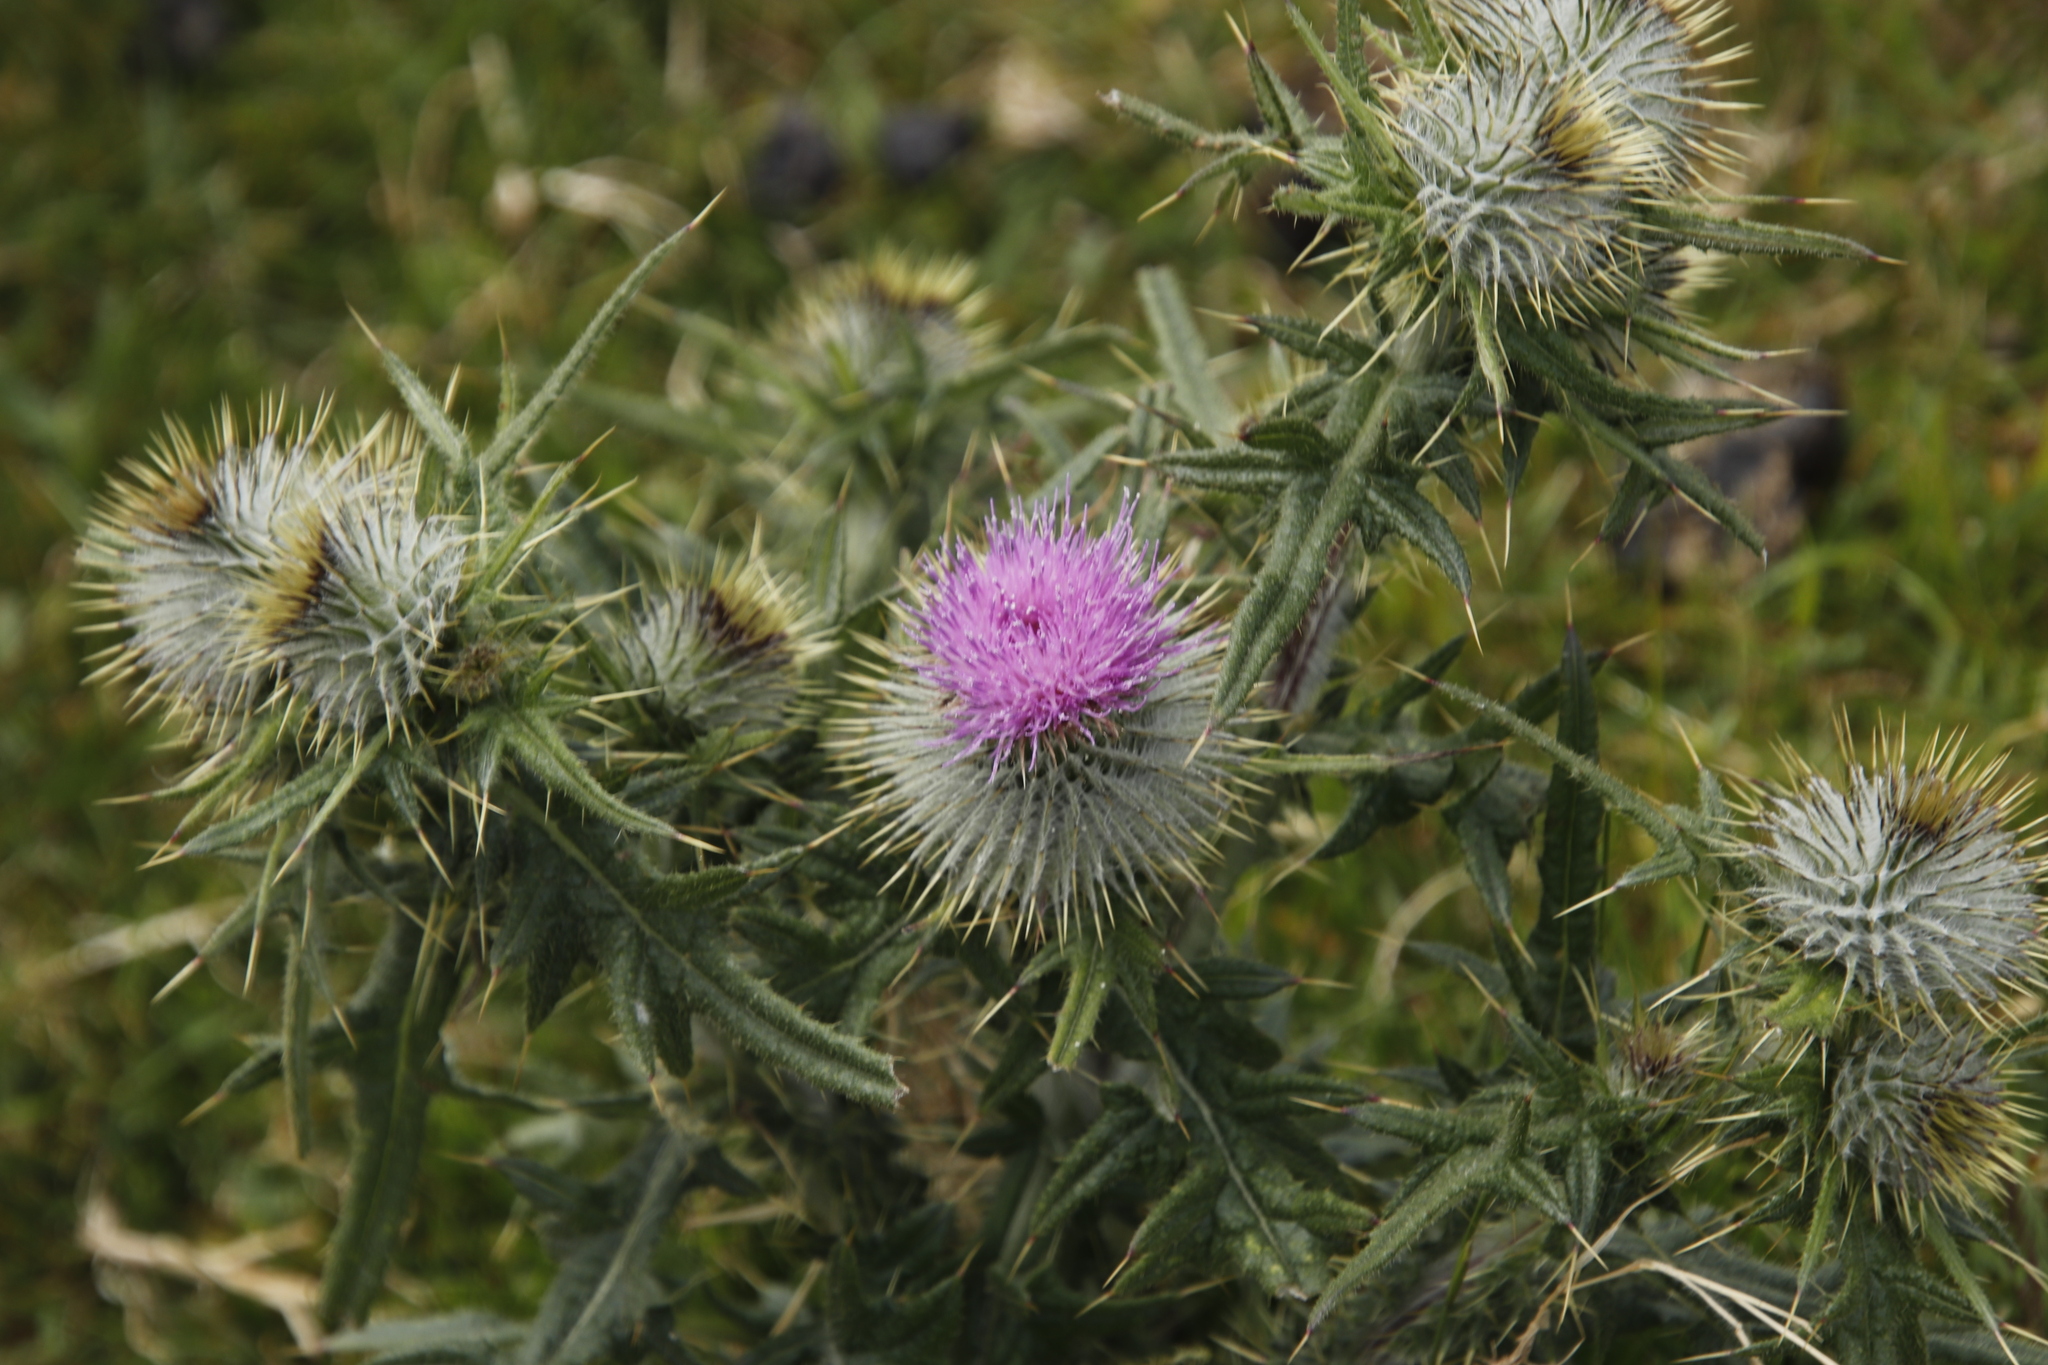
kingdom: Plantae
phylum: Tracheophyta
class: Magnoliopsida
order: Asterales
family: Asteraceae
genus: Cirsium
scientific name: Cirsium vulgare
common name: Bull thistle
